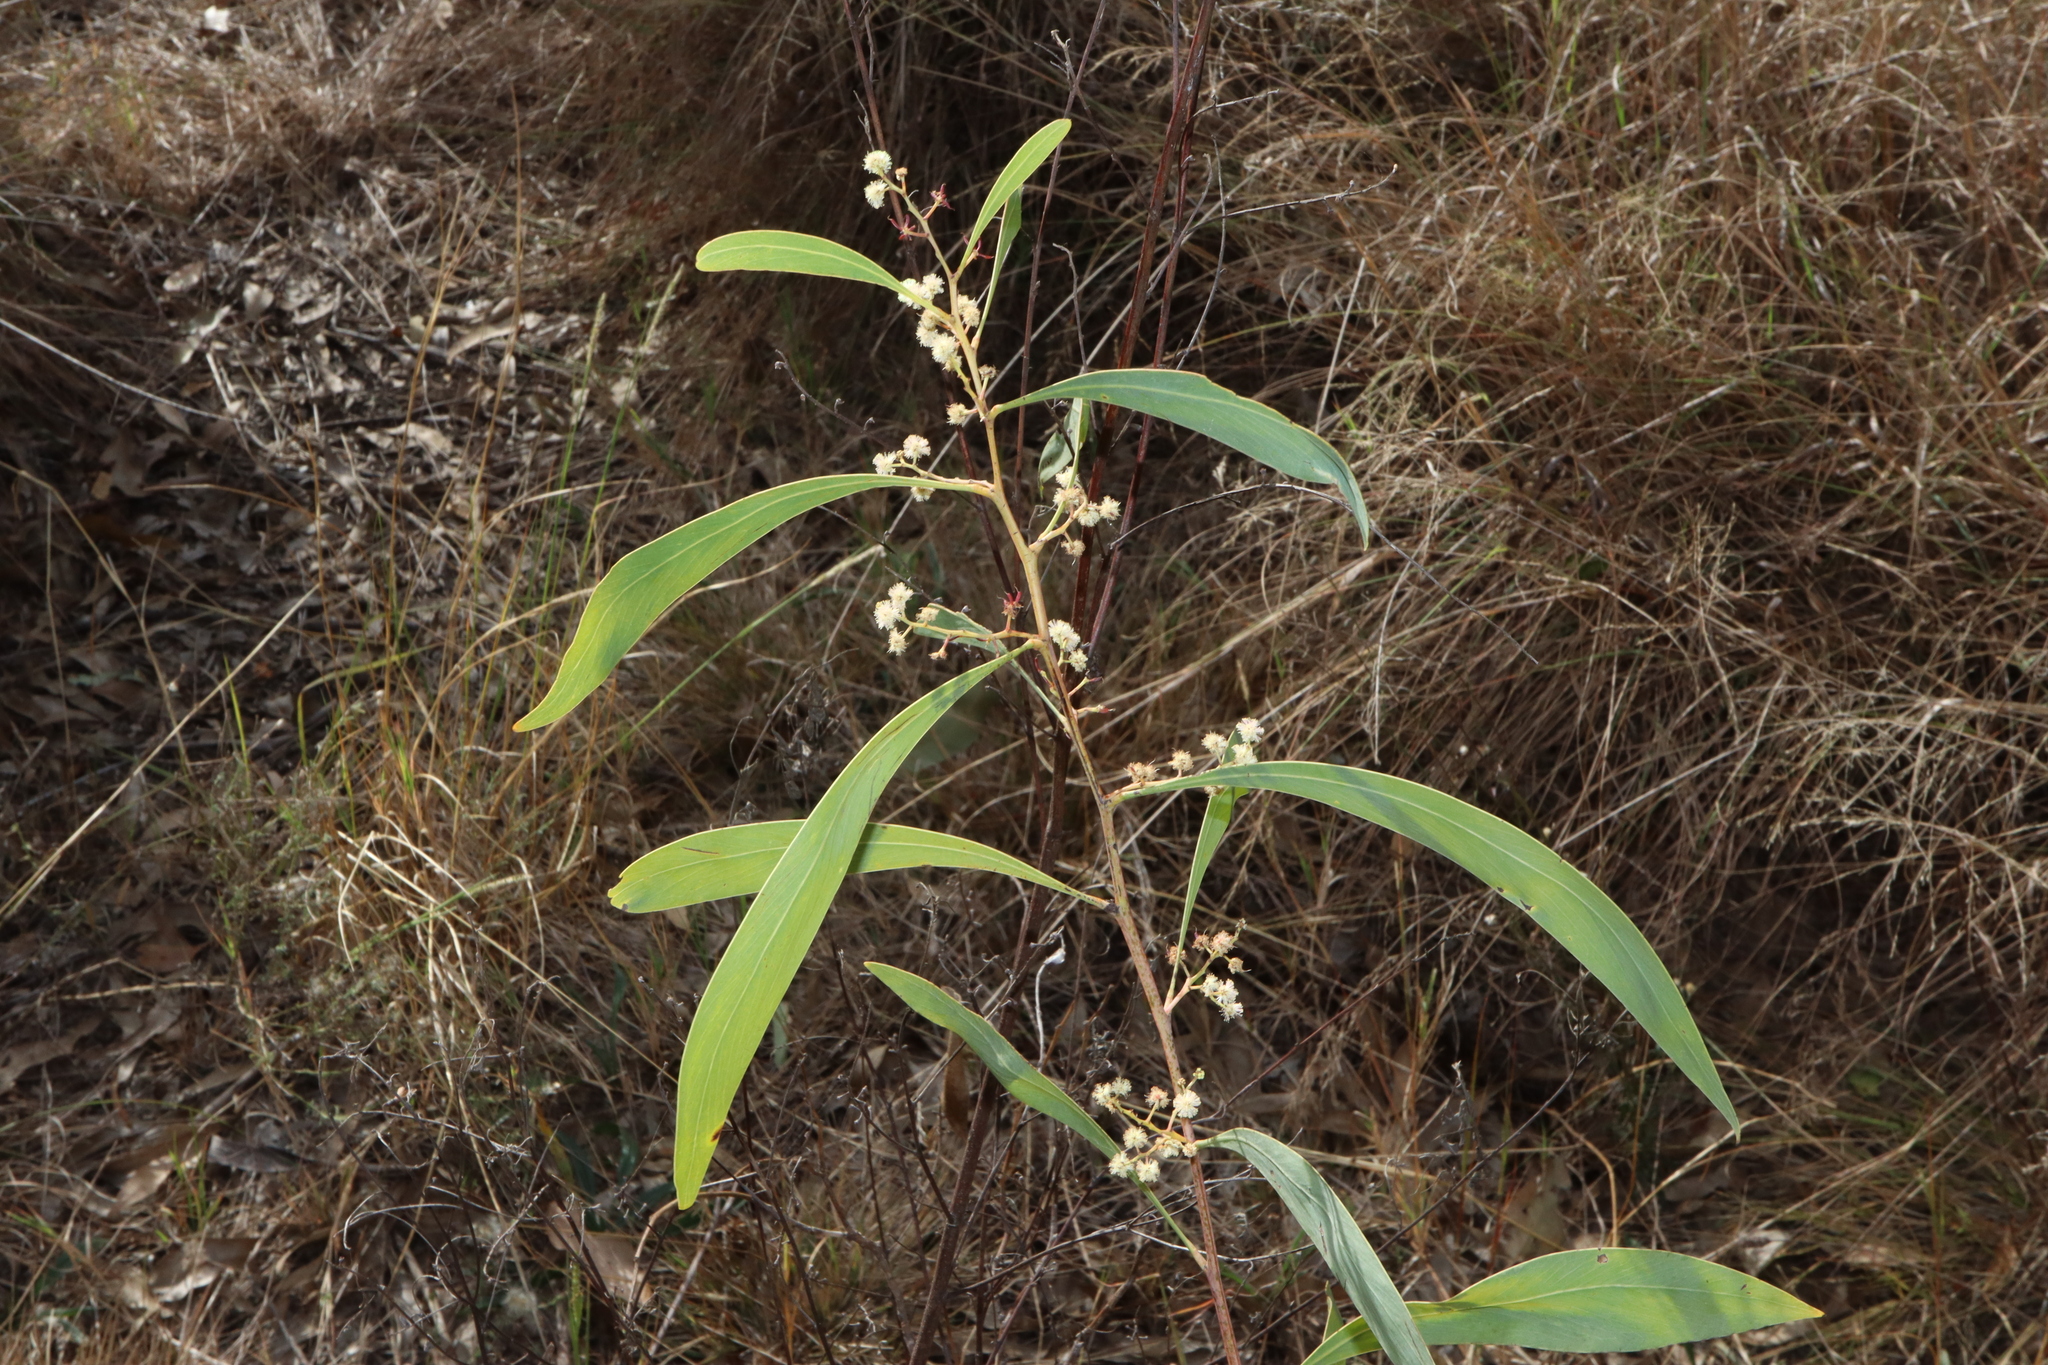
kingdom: Plantae
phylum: Tracheophyta
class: Magnoliopsida
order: Fabales
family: Fabaceae
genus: Acacia
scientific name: Acacia falcata
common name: Burra acacia
